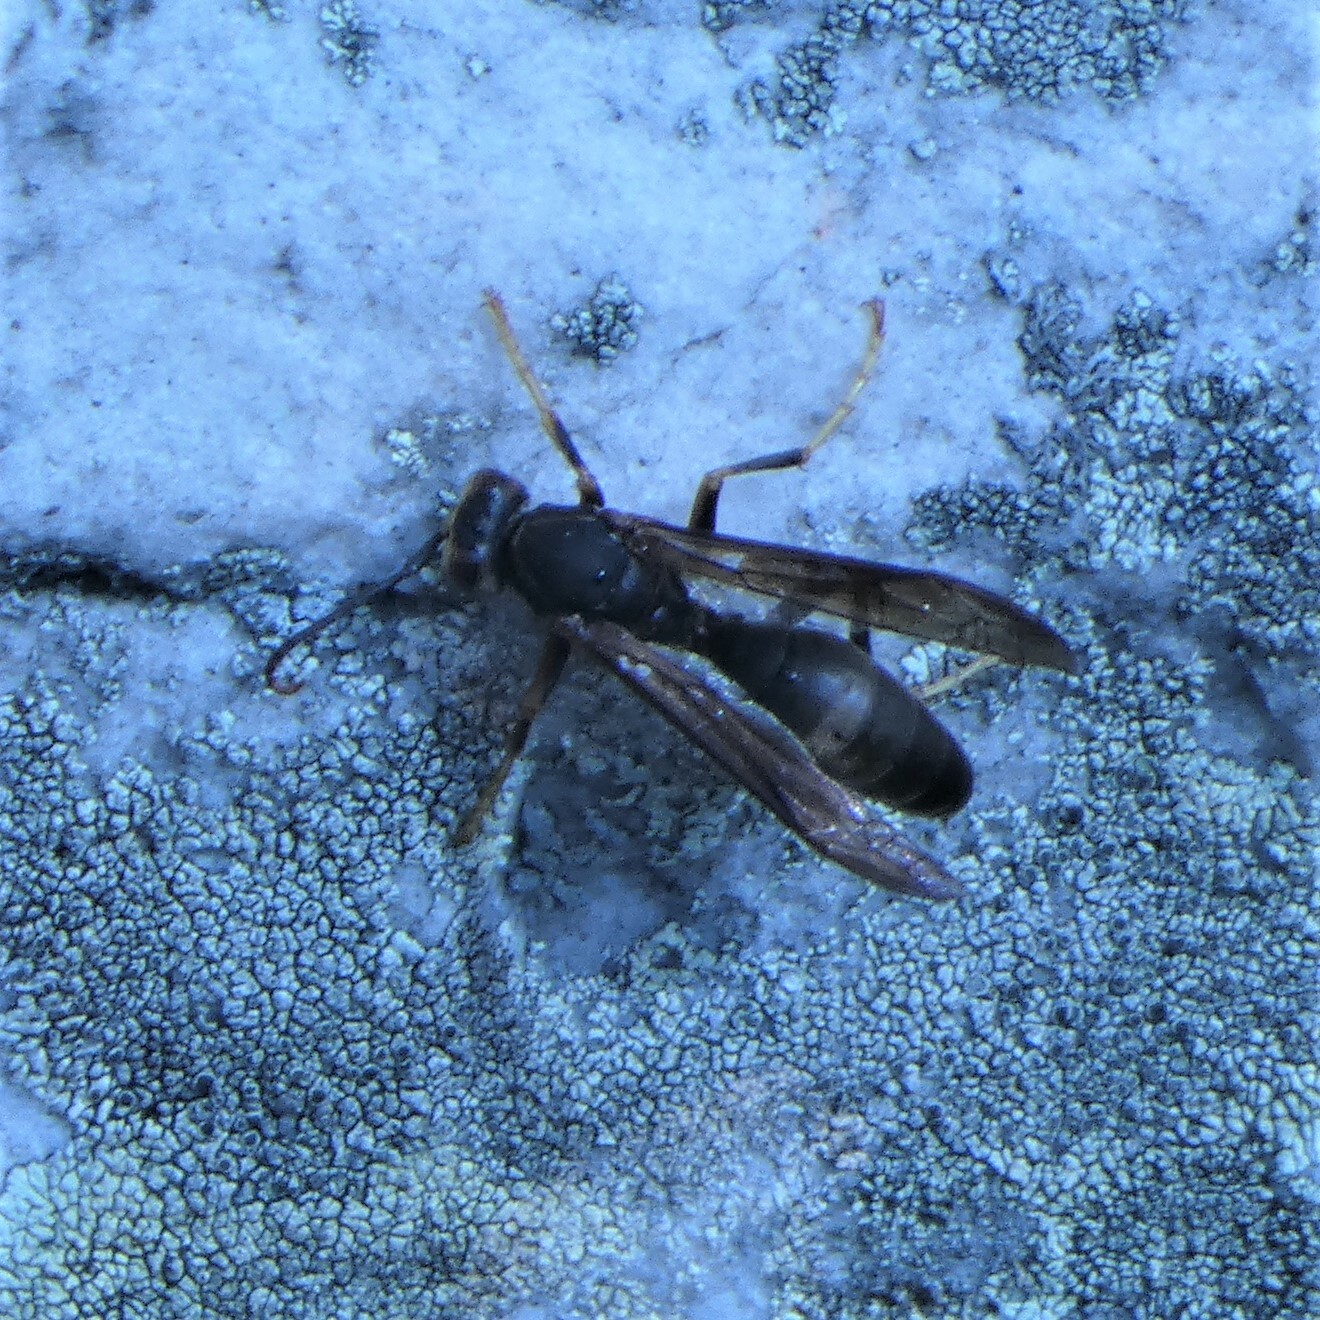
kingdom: Animalia
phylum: Arthropoda
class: Insecta
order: Hymenoptera
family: Eumenidae
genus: Polistes
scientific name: Polistes parametricus
